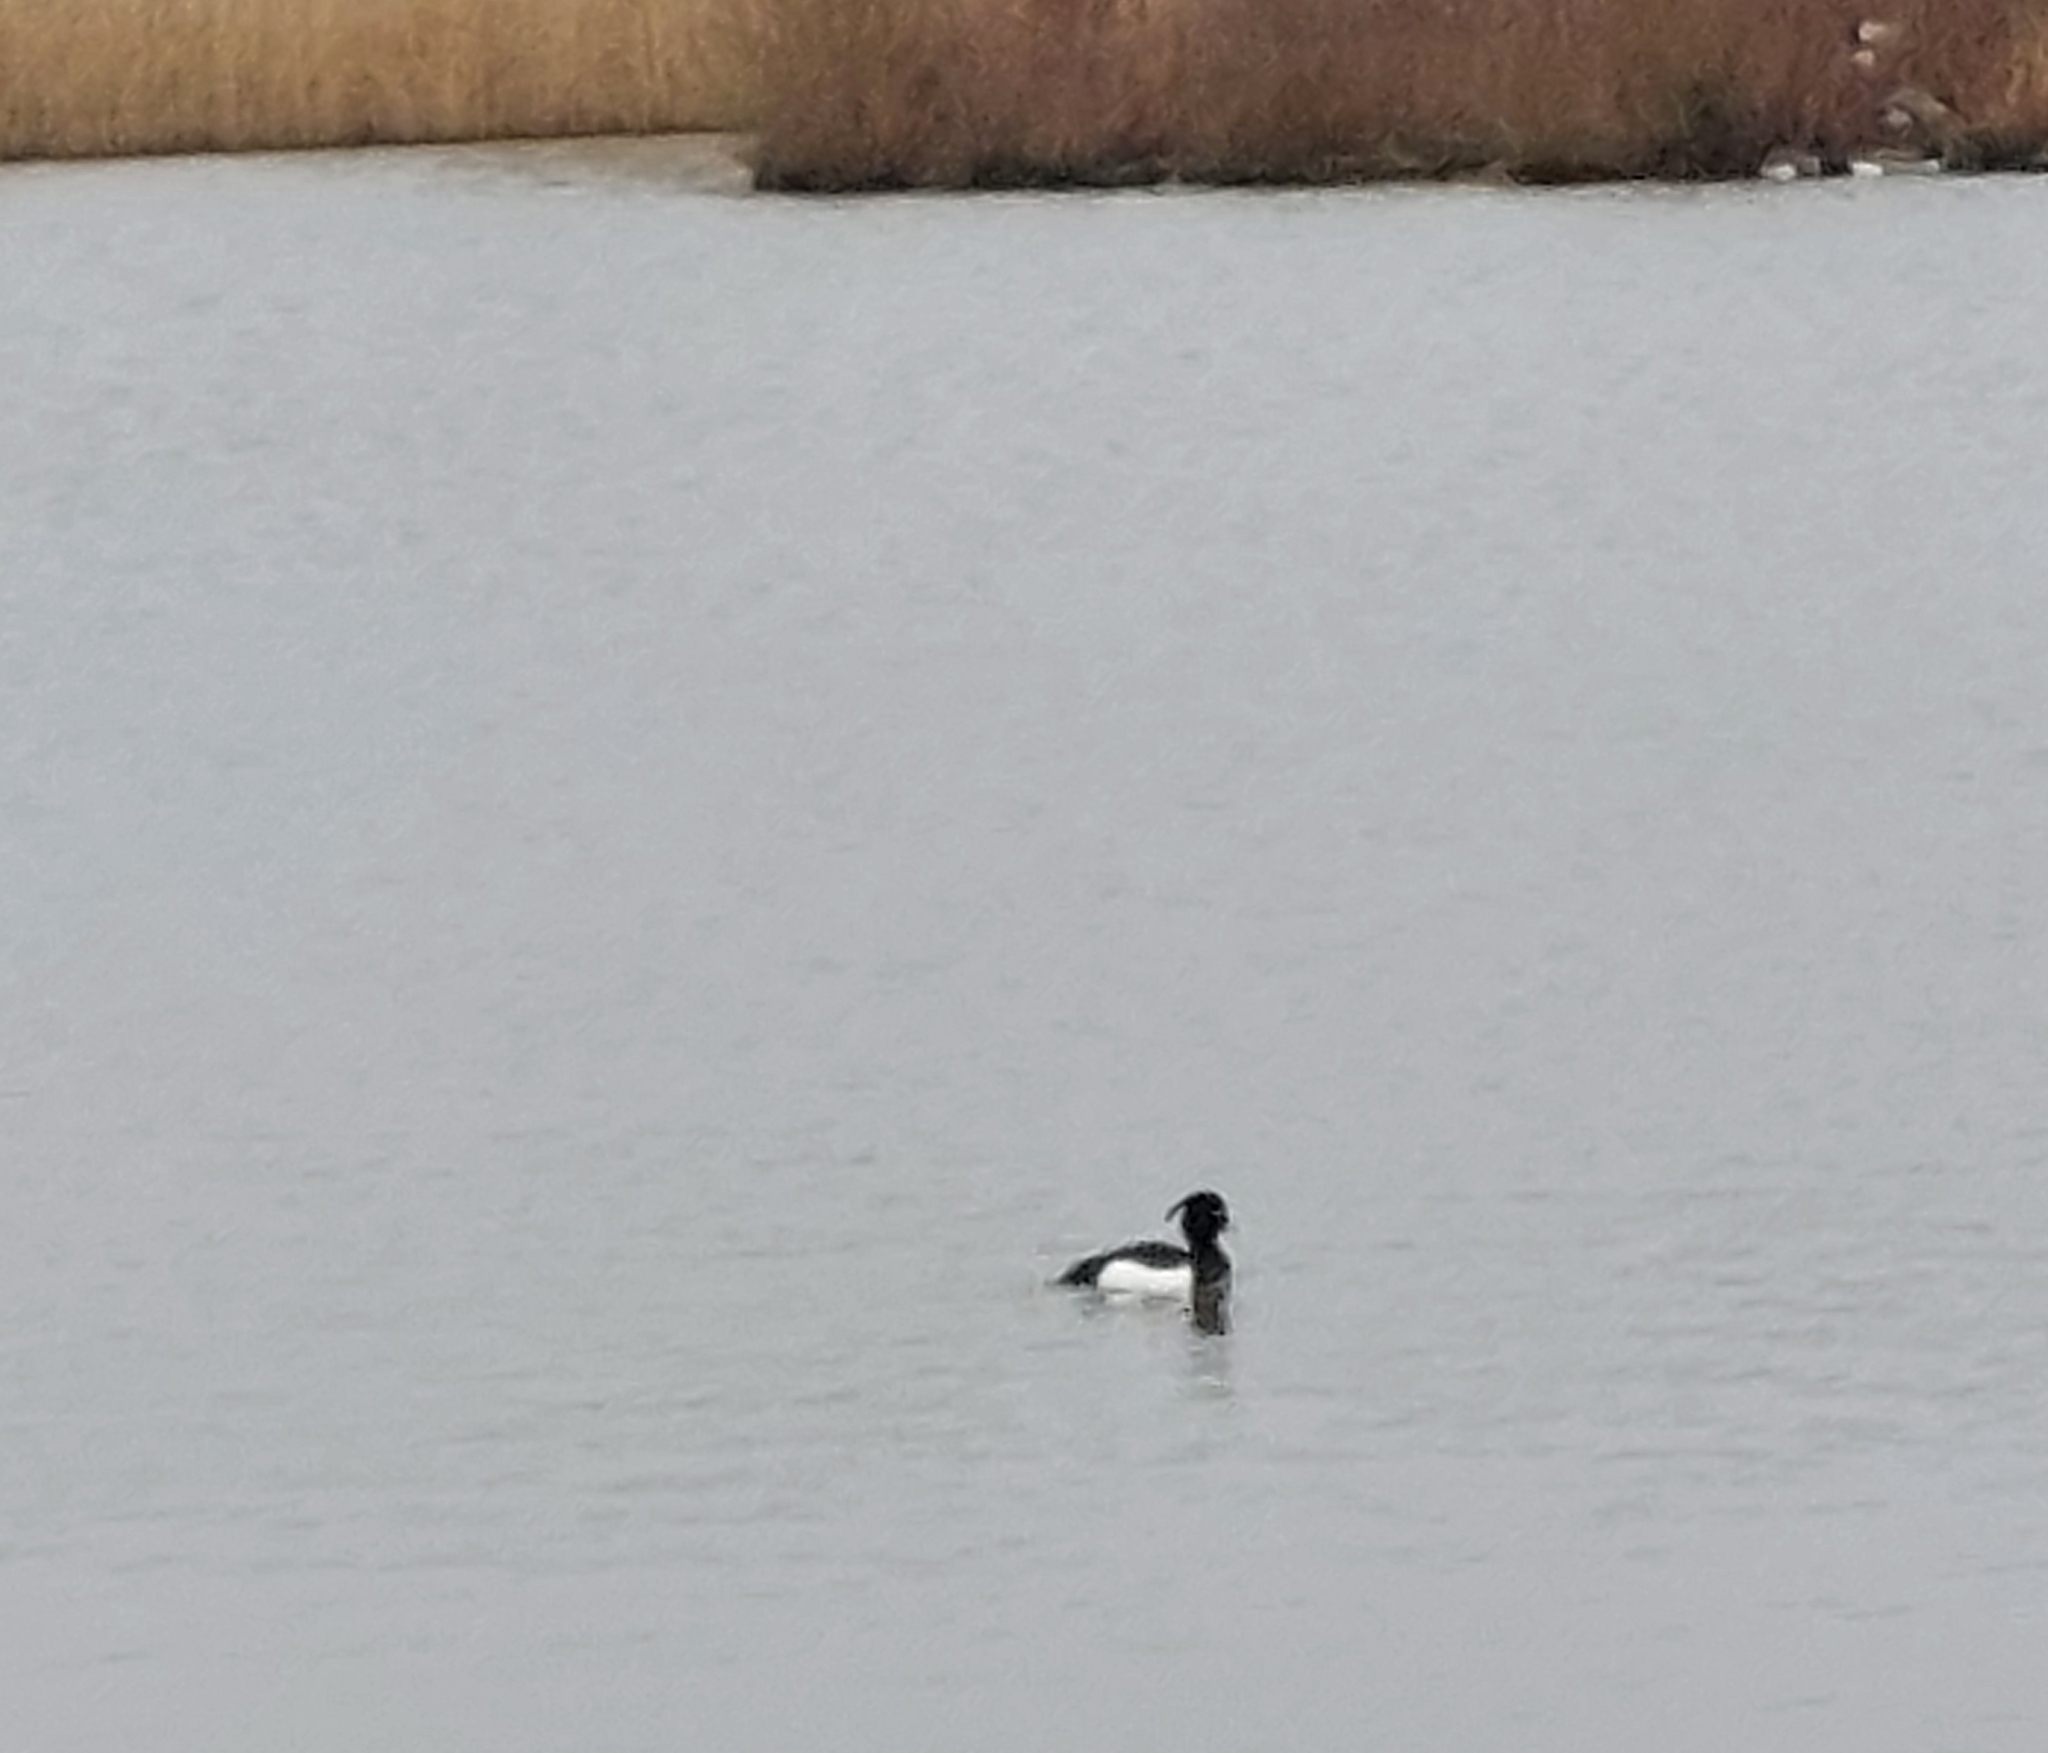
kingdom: Animalia
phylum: Chordata
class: Aves
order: Anseriformes
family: Anatidae
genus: Aythya
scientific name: Aythya fuligula
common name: Tufted duck
